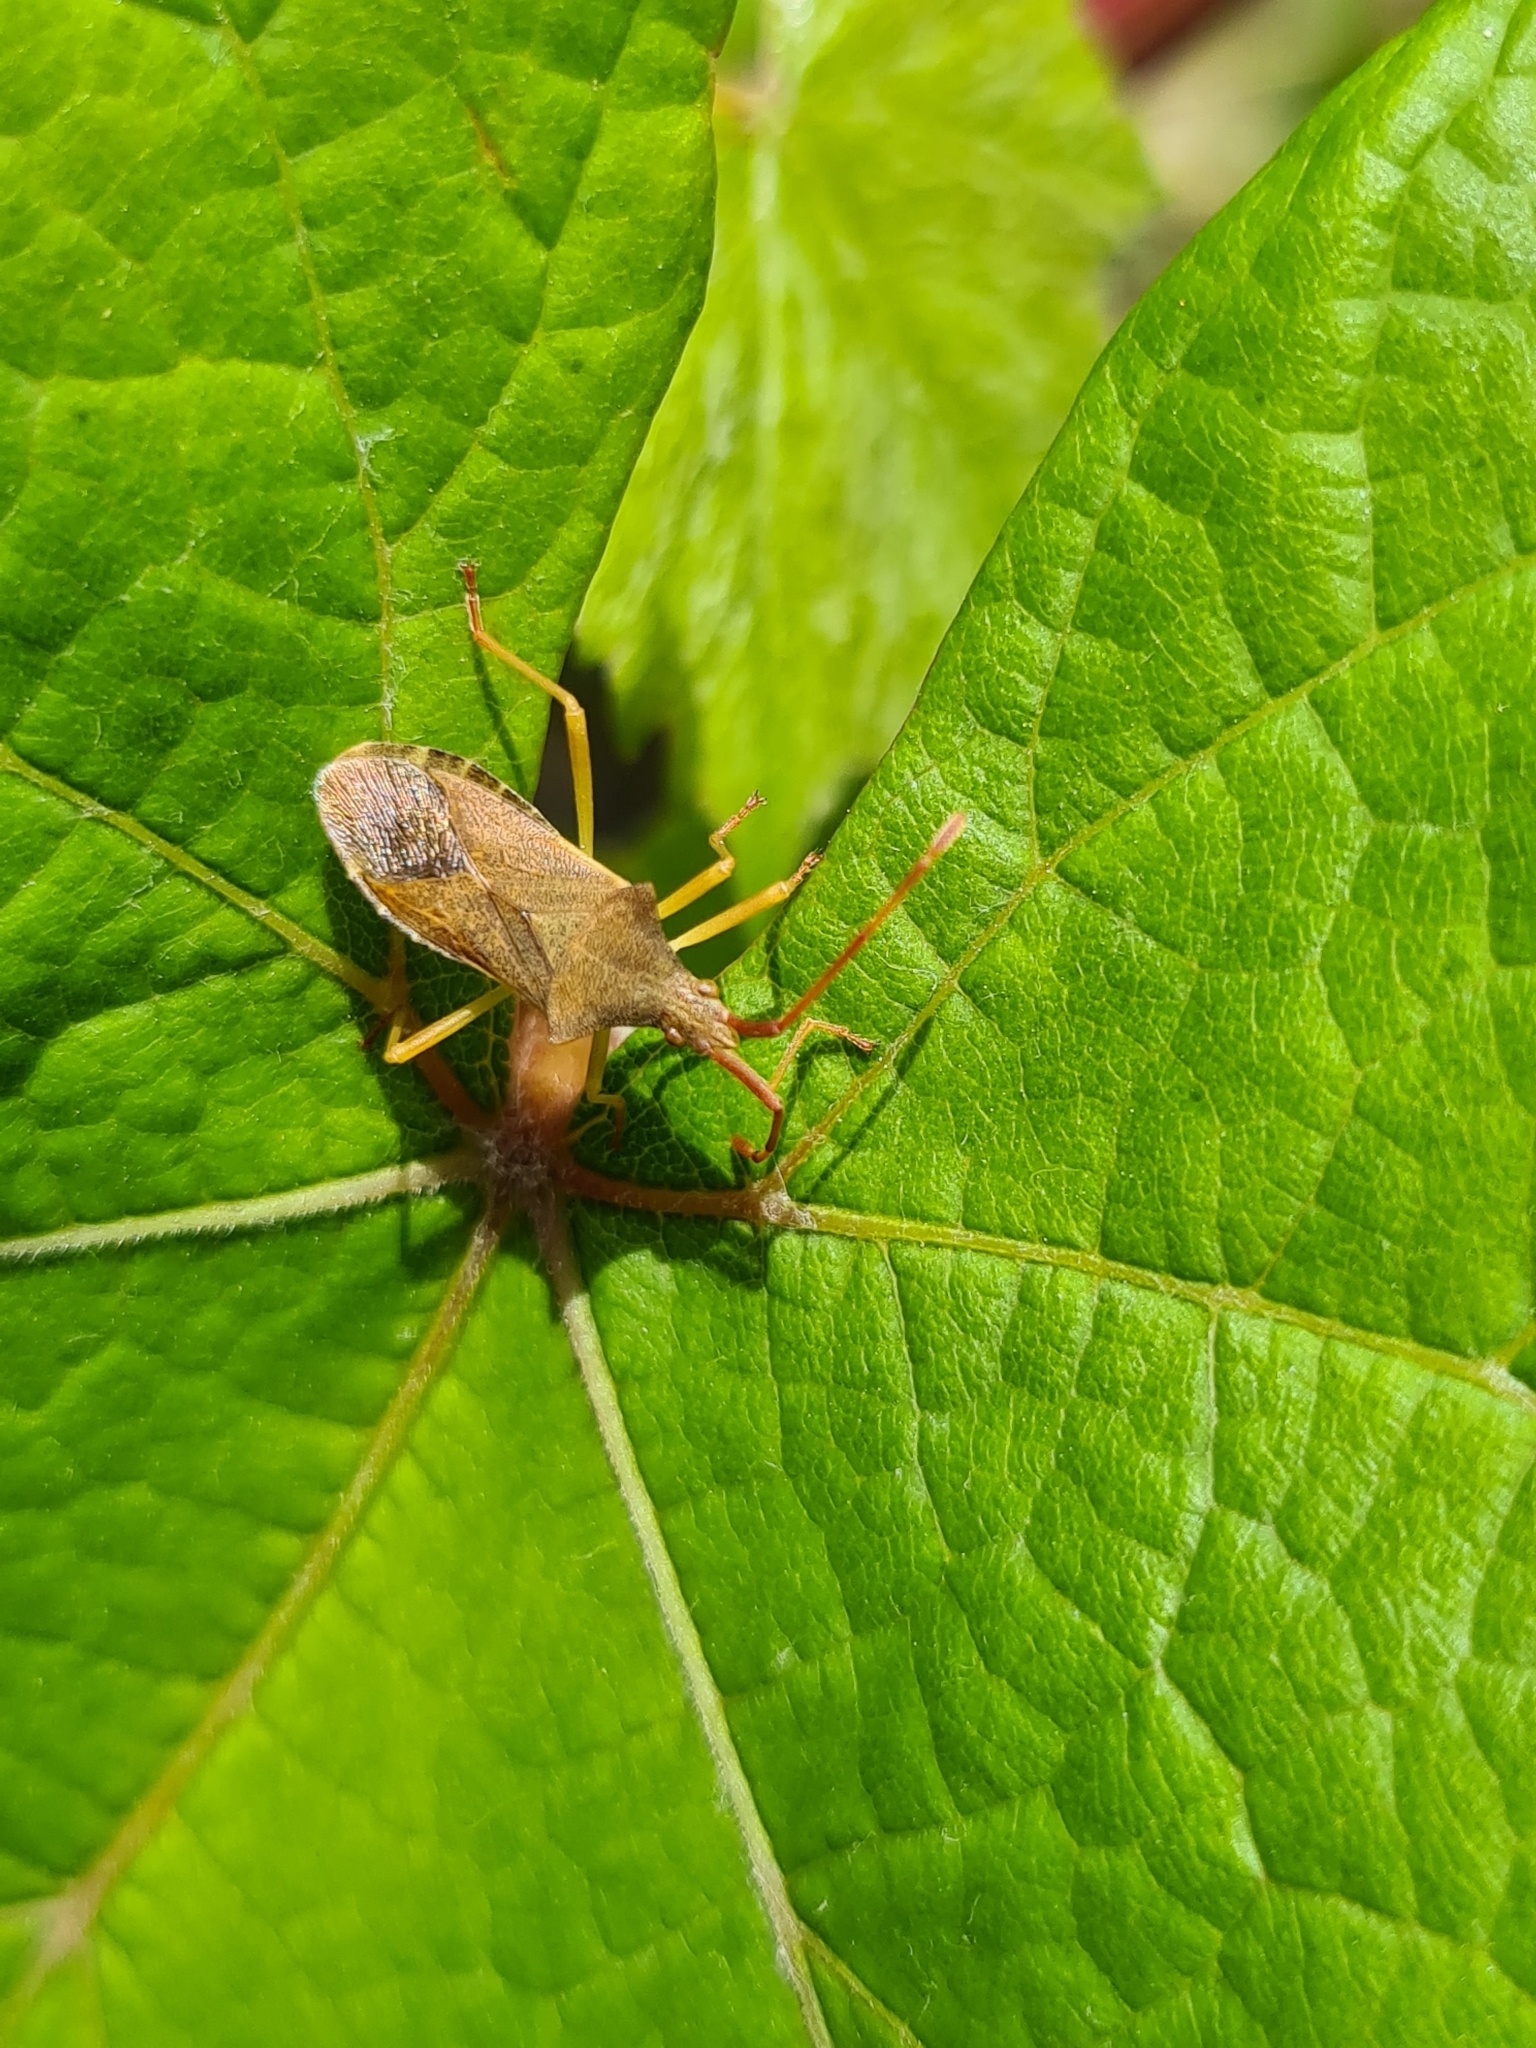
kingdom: Animalia
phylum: Arthropoda
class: Insecta
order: Hemiptera
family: Coreidae
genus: Gonocerus
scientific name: Gonocerus acuteangulatus
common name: Box bug
